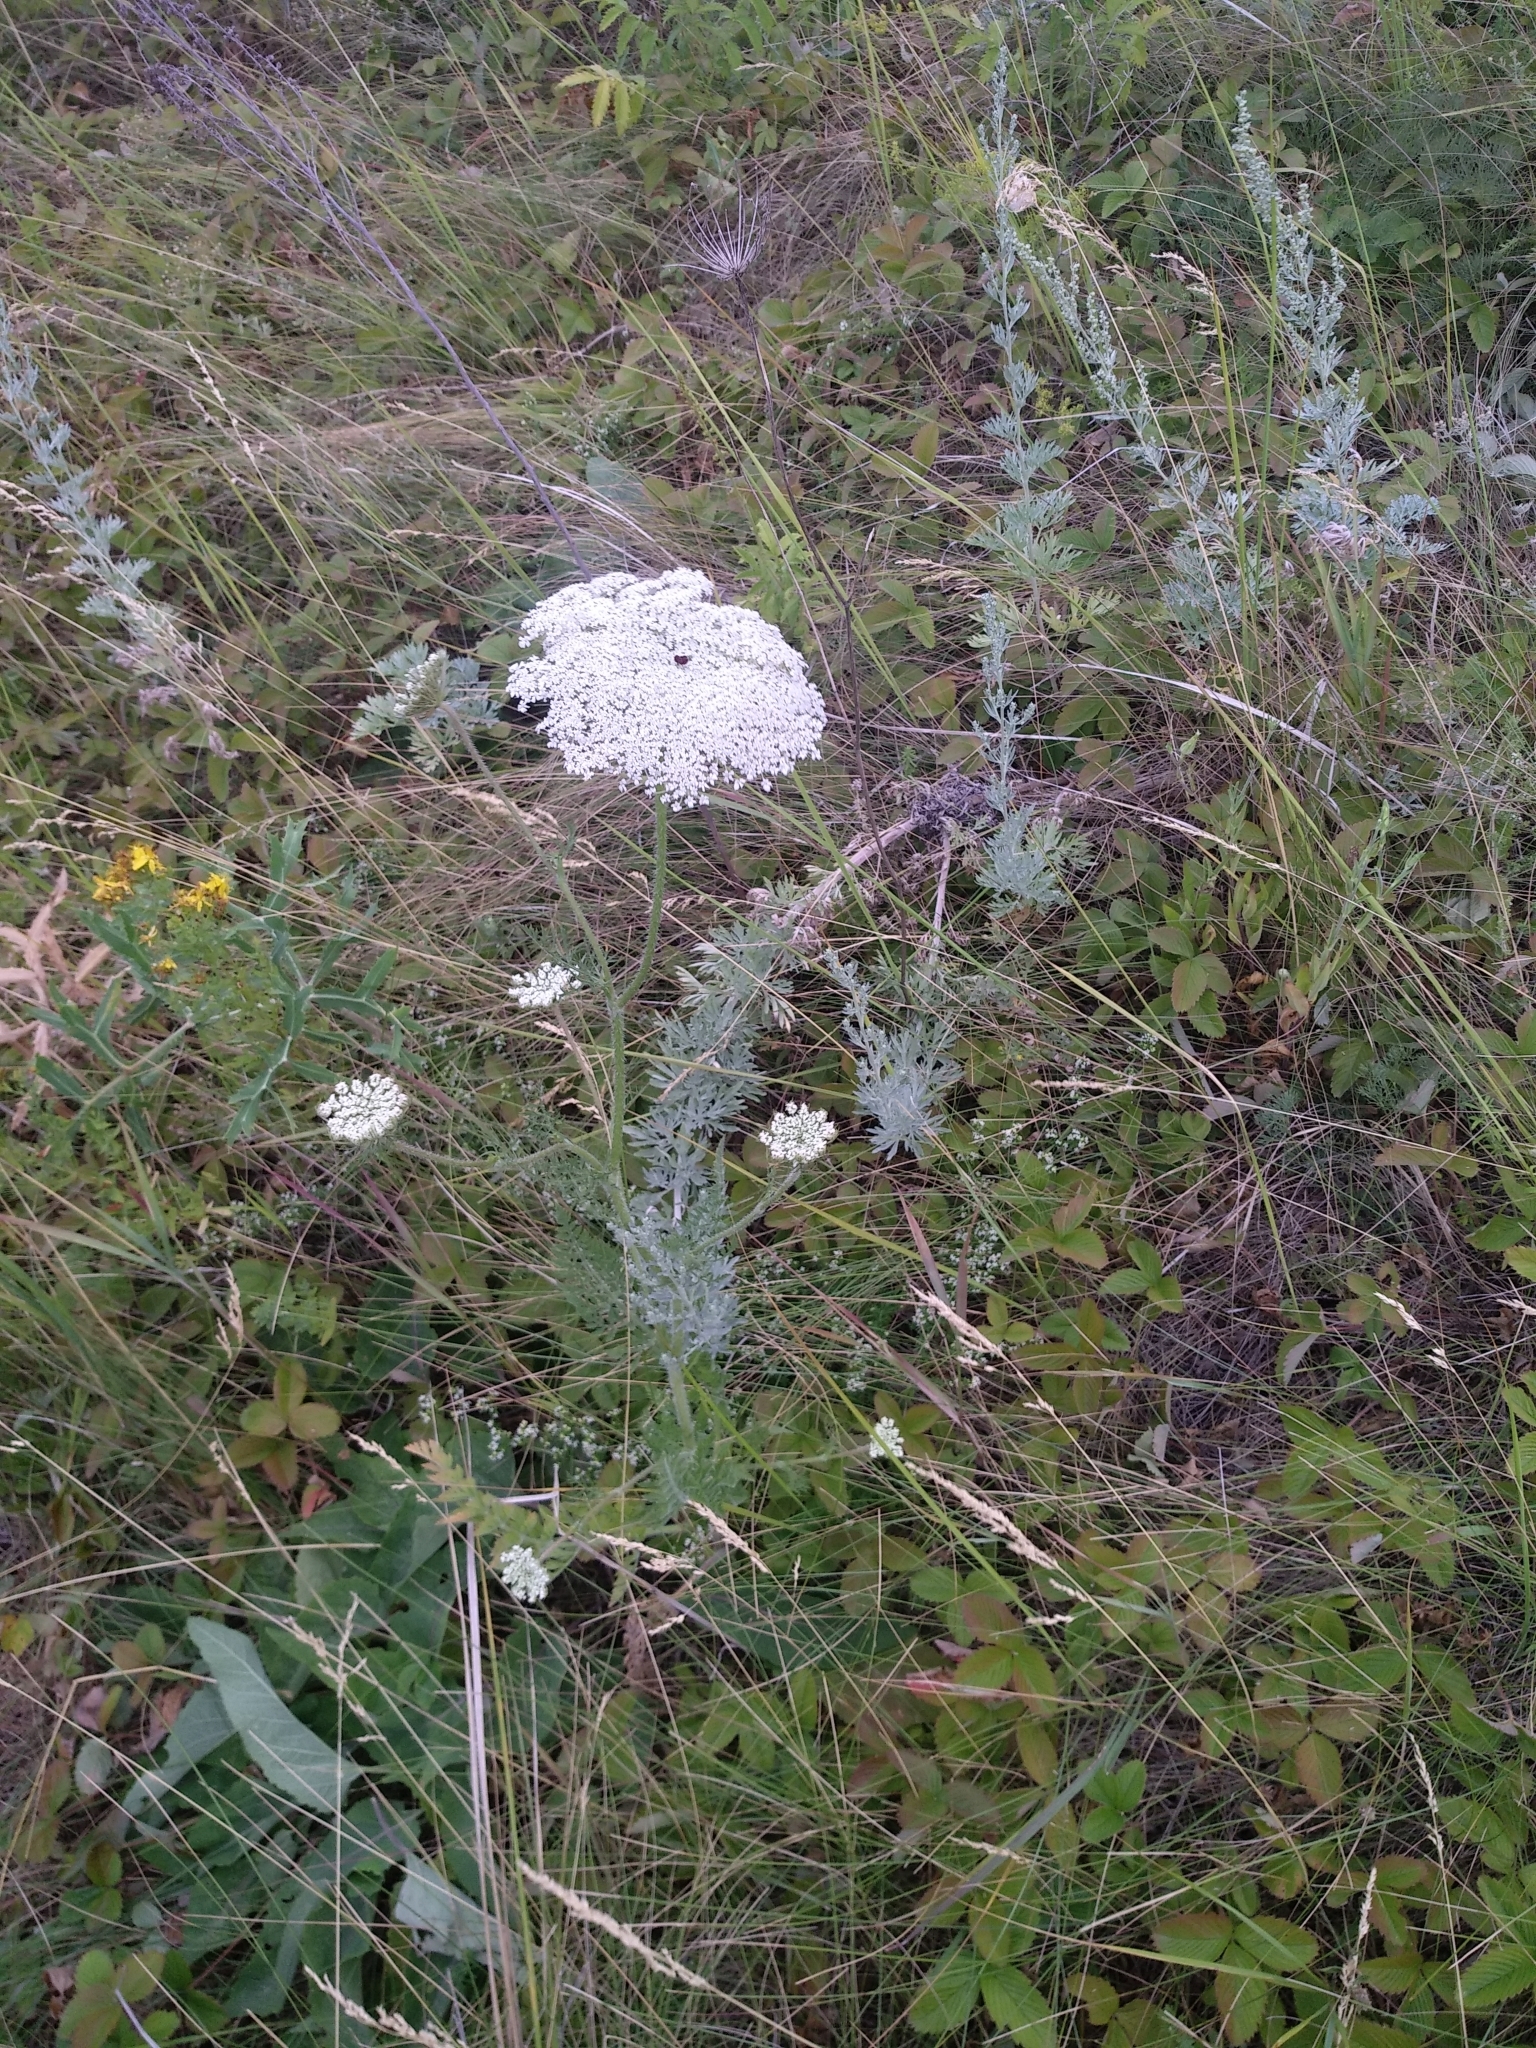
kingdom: Plantae
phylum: Tracheophyta
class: Magnoliopsida
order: Apiales
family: Apiaceae
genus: Daucus
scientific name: Daucus carota
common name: Wild carrot
